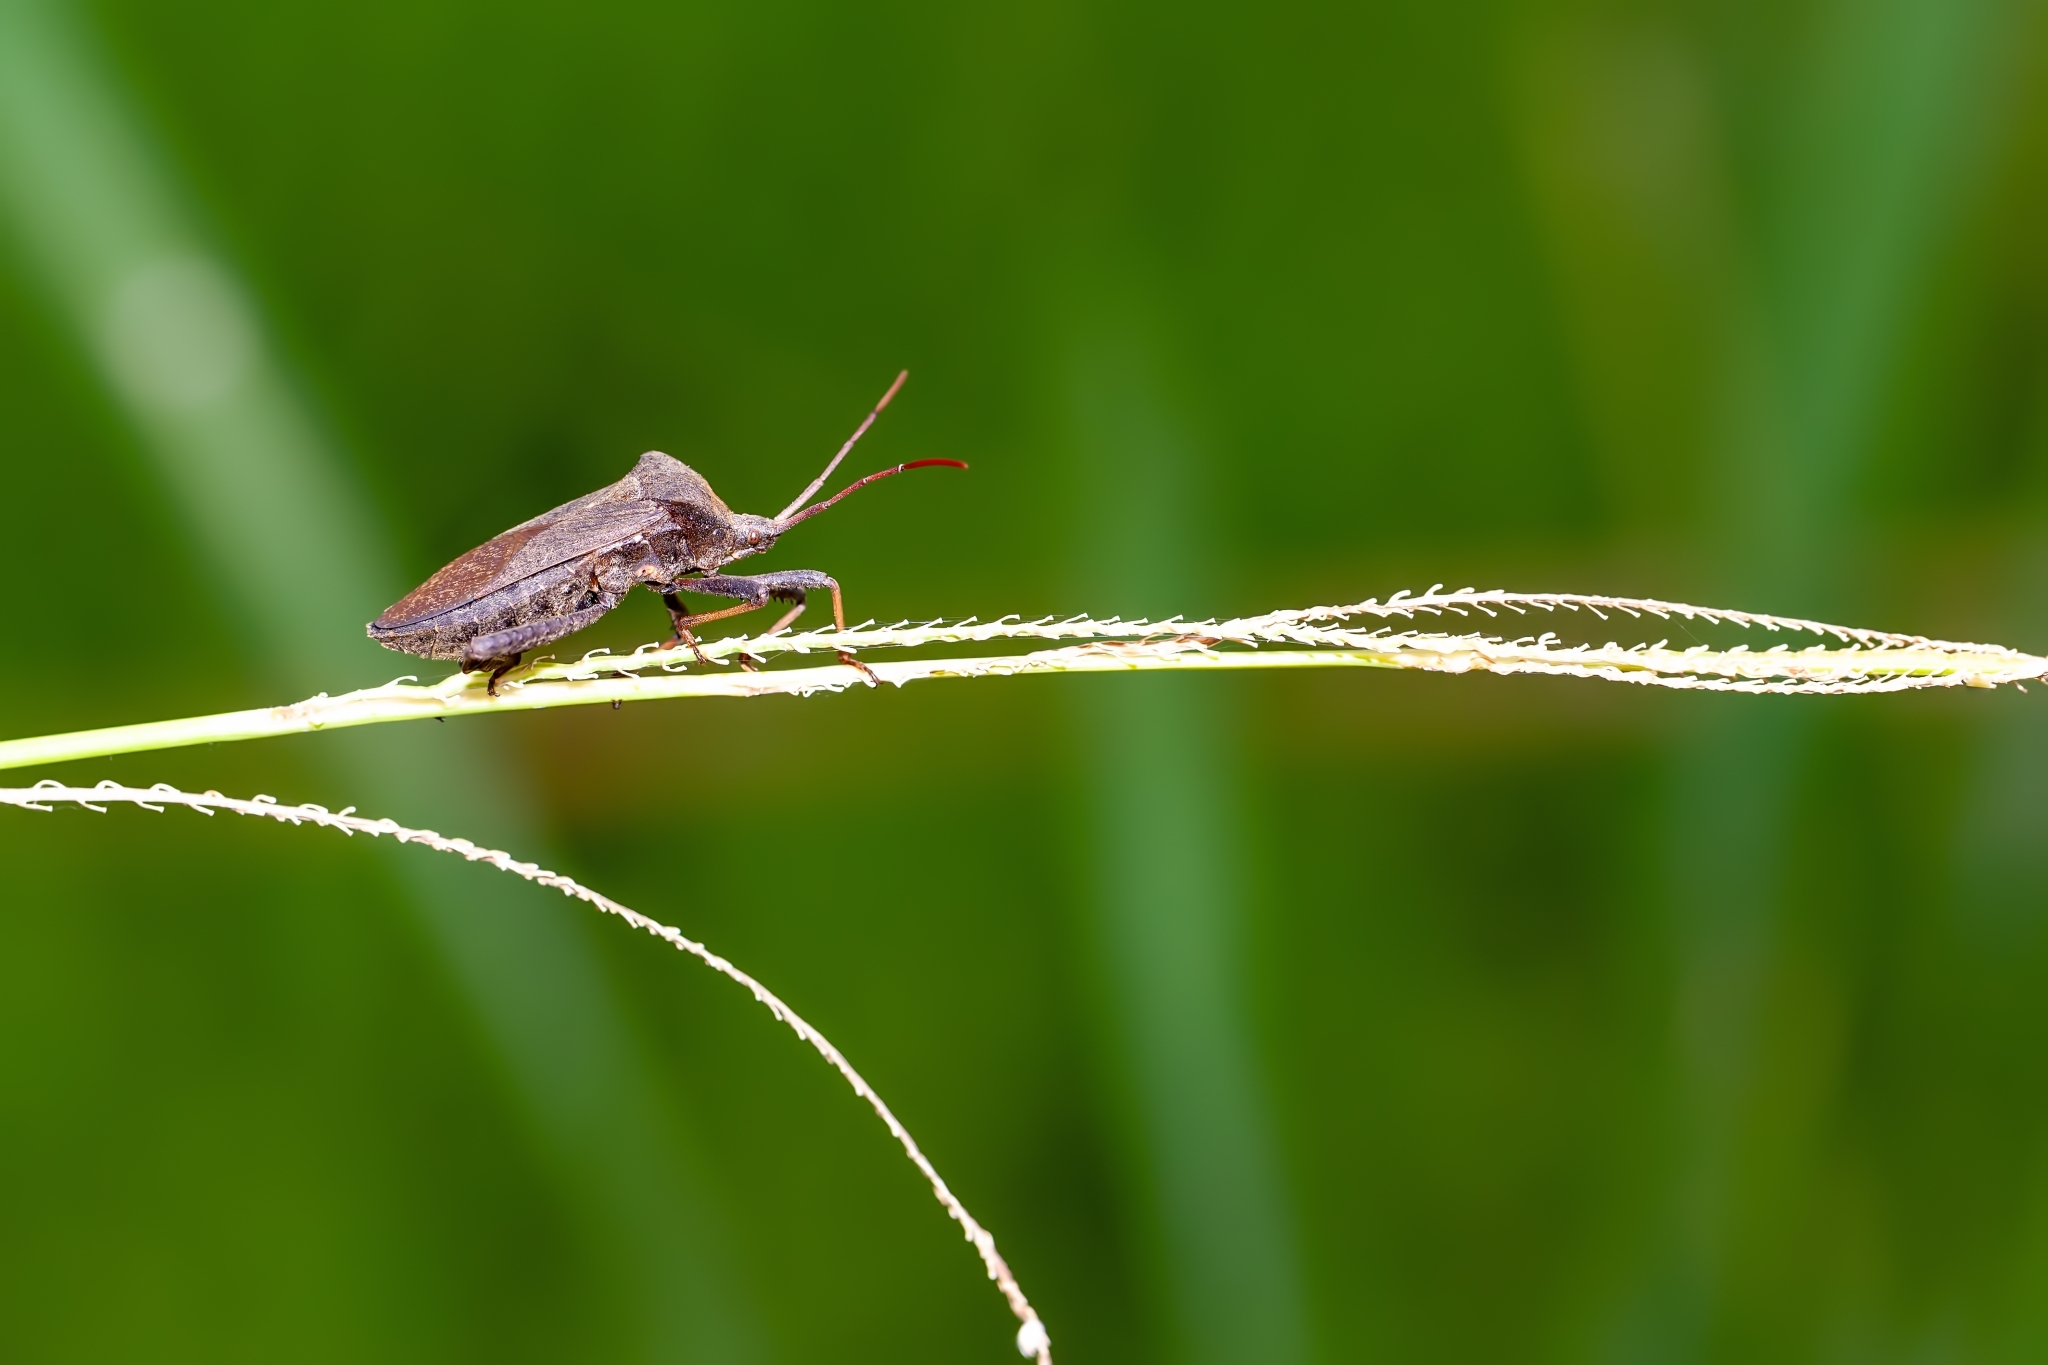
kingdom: Animalia
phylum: Arthropoda
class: Insecta
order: Hemiptera
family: Coreidae
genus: Acanthocephala
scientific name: Acanthocephala femorata
